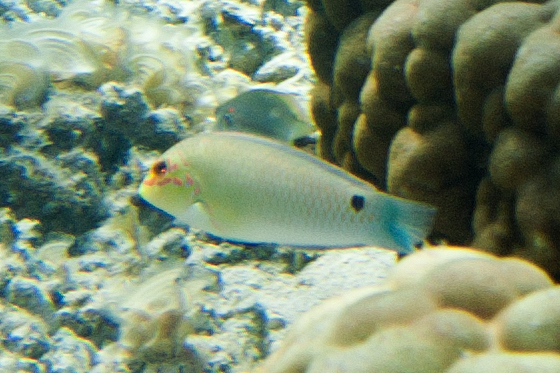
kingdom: Animalia
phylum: Chordata
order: Perciformes
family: Labridae
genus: Halichoeres
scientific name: Halichoeres trimaculatus
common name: Three-spot wrasse
